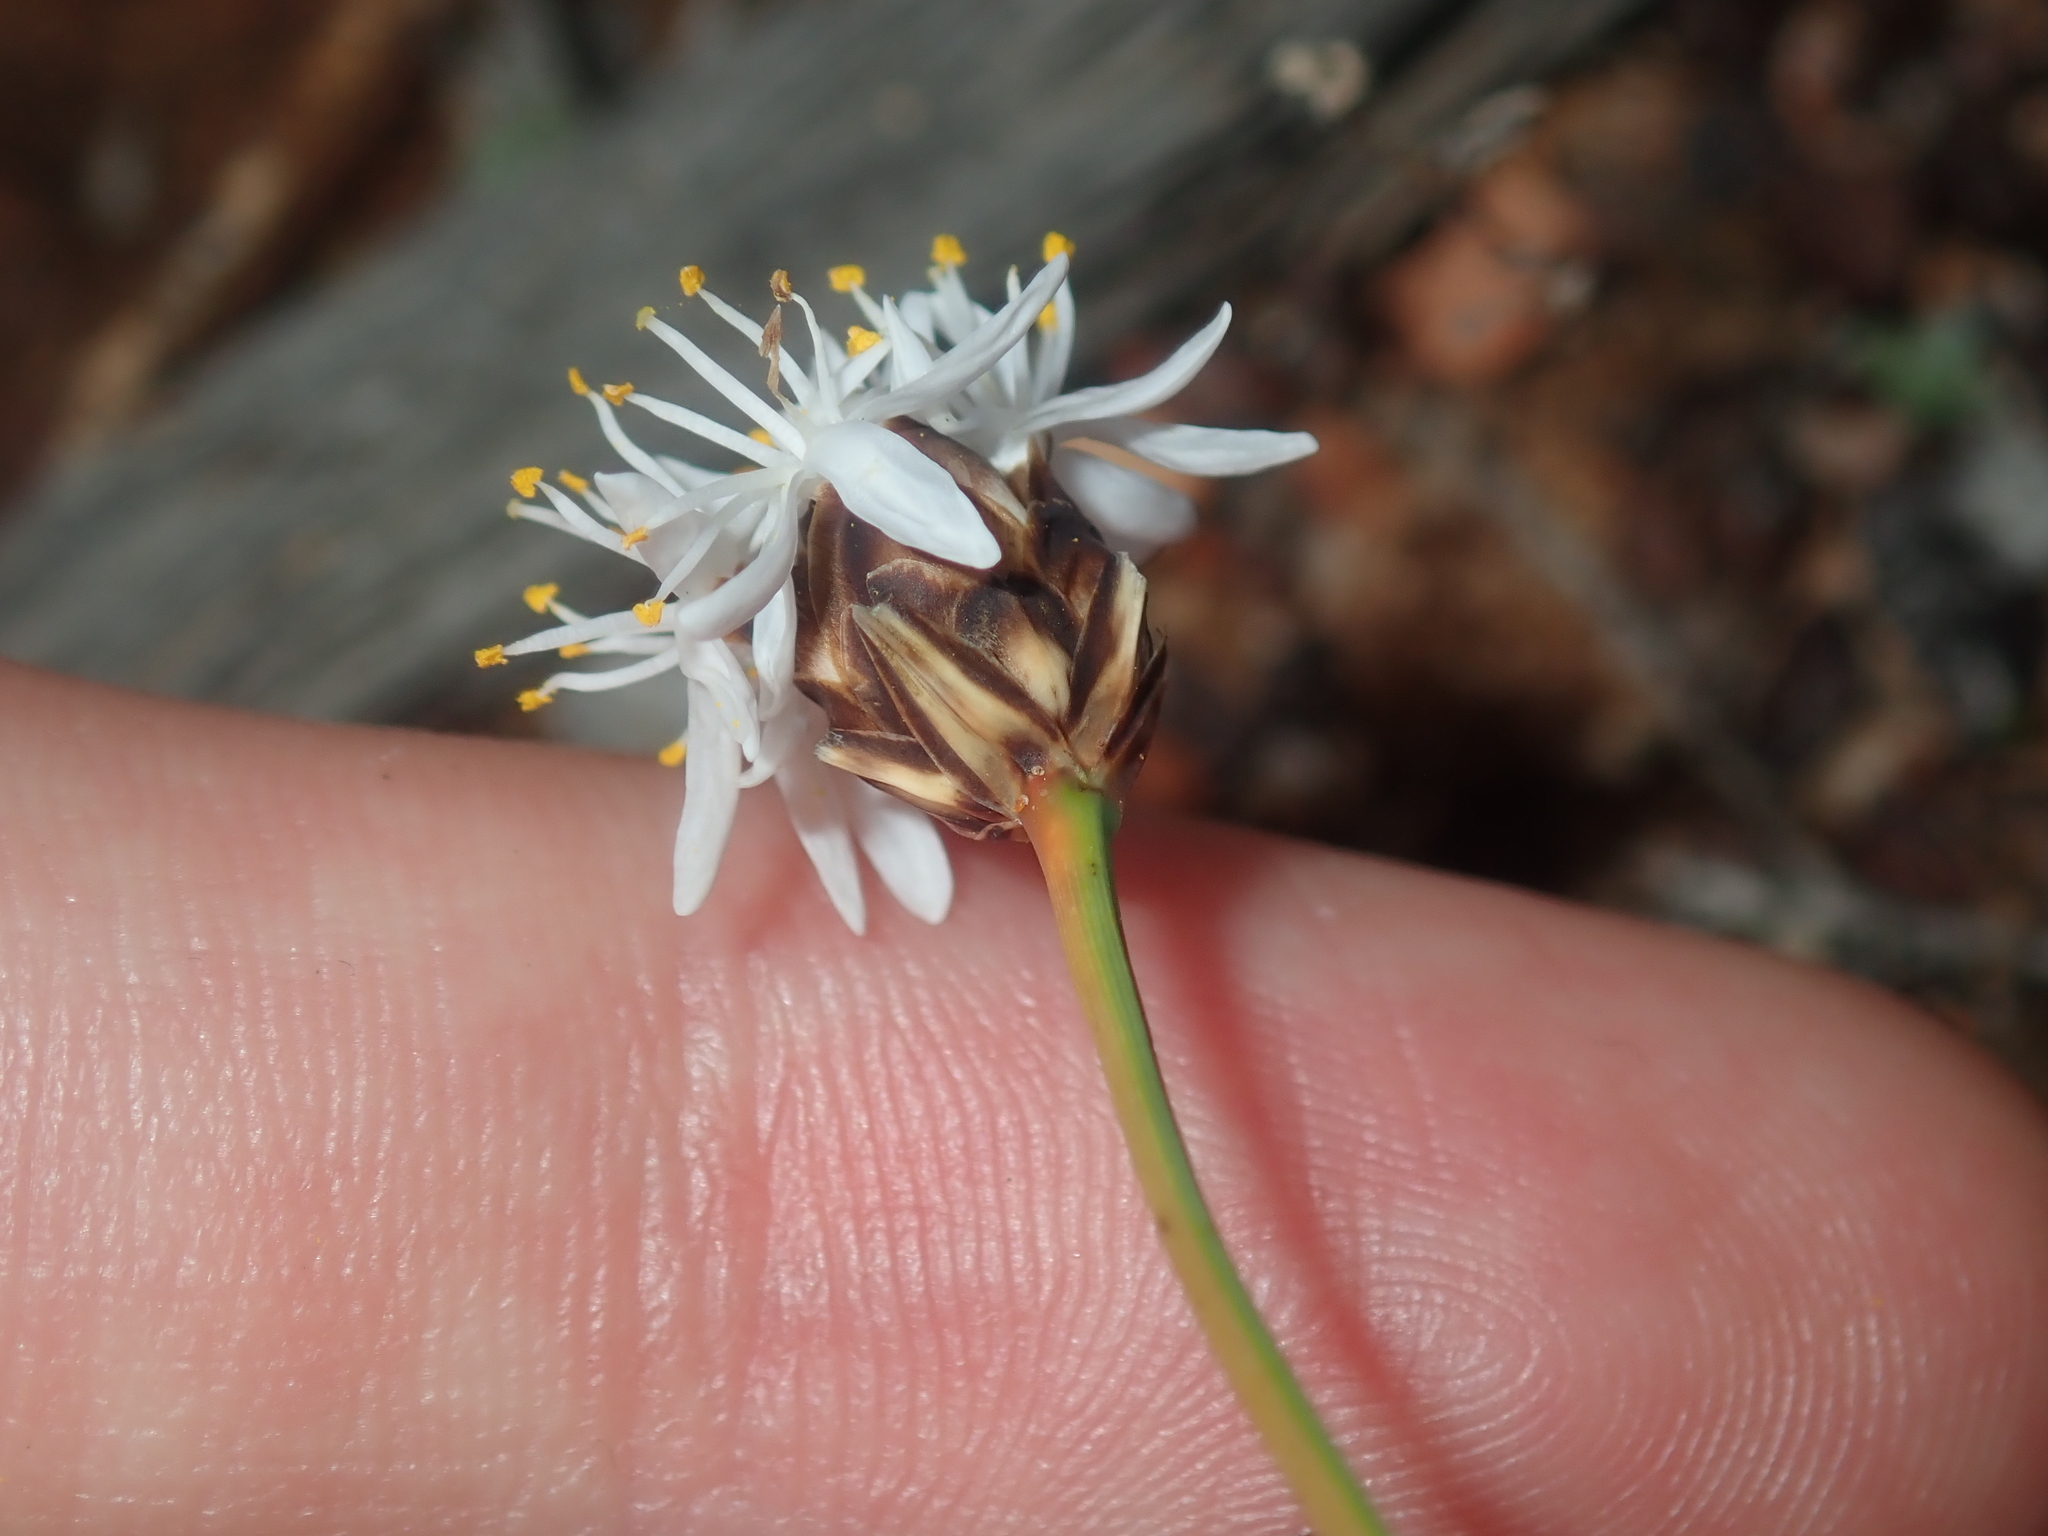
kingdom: Plantae
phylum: Tracheophyta
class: Liliopsida
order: Asparagales
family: Boryaceae
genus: Borya
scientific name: Borya sphaerocephala
